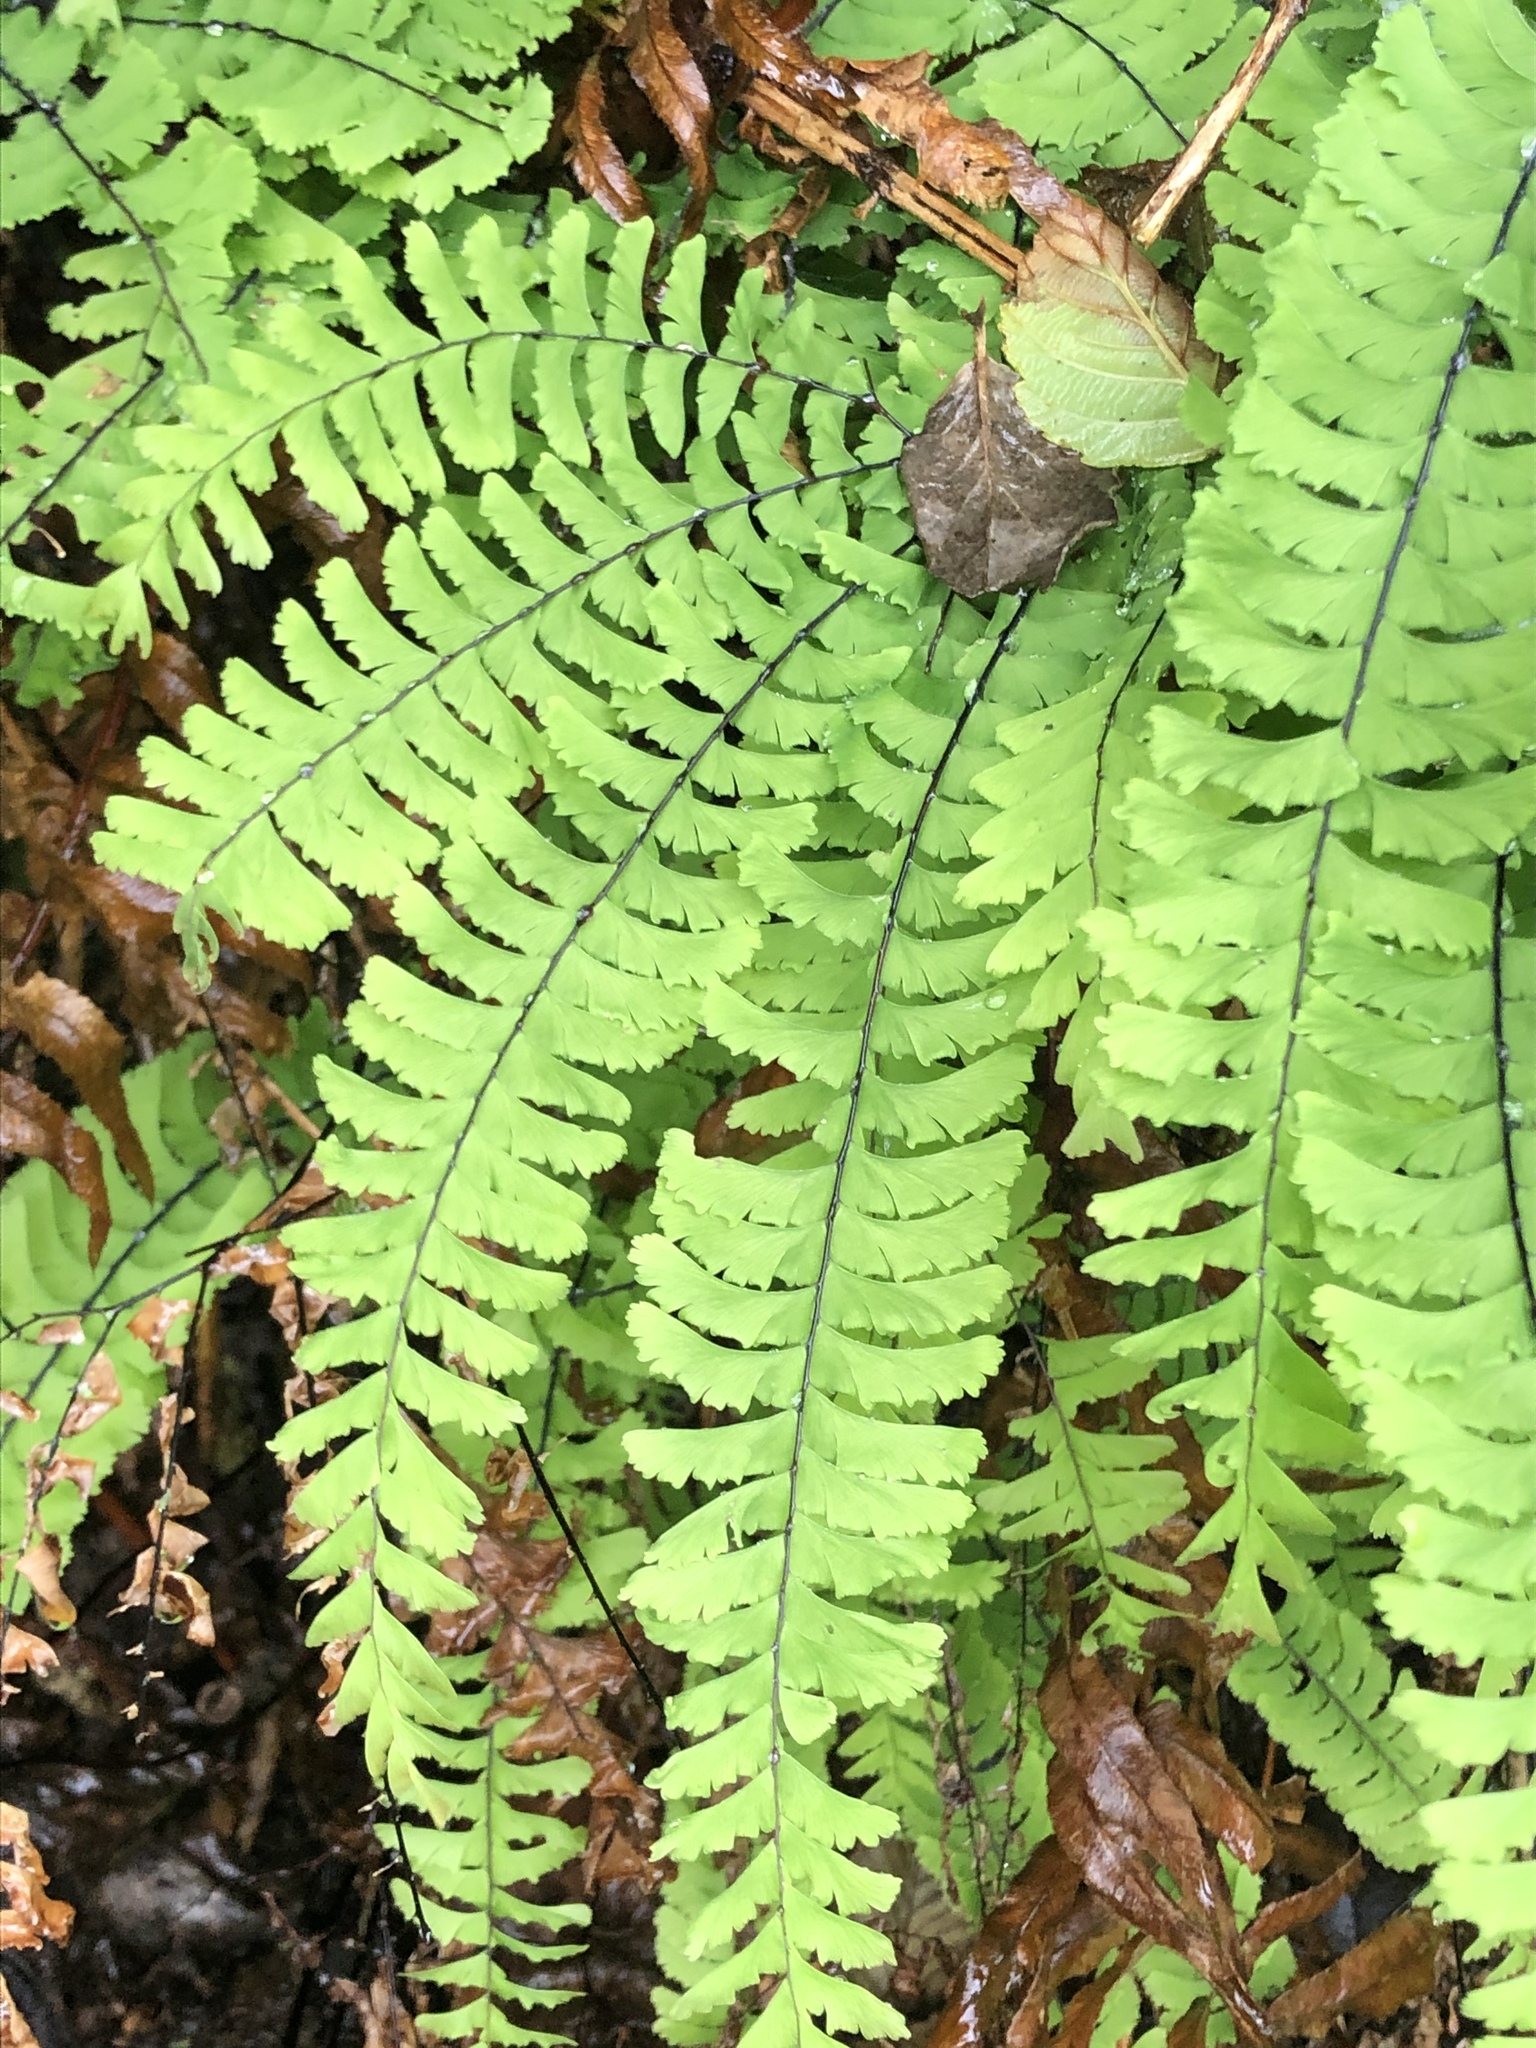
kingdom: Plantae
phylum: Tracheophyta
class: Polypodiopsida
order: Polypodiales
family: Pteridaceae
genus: Adiantum
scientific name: Adiantum aleuticum
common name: Aleutian maidenhair fern
